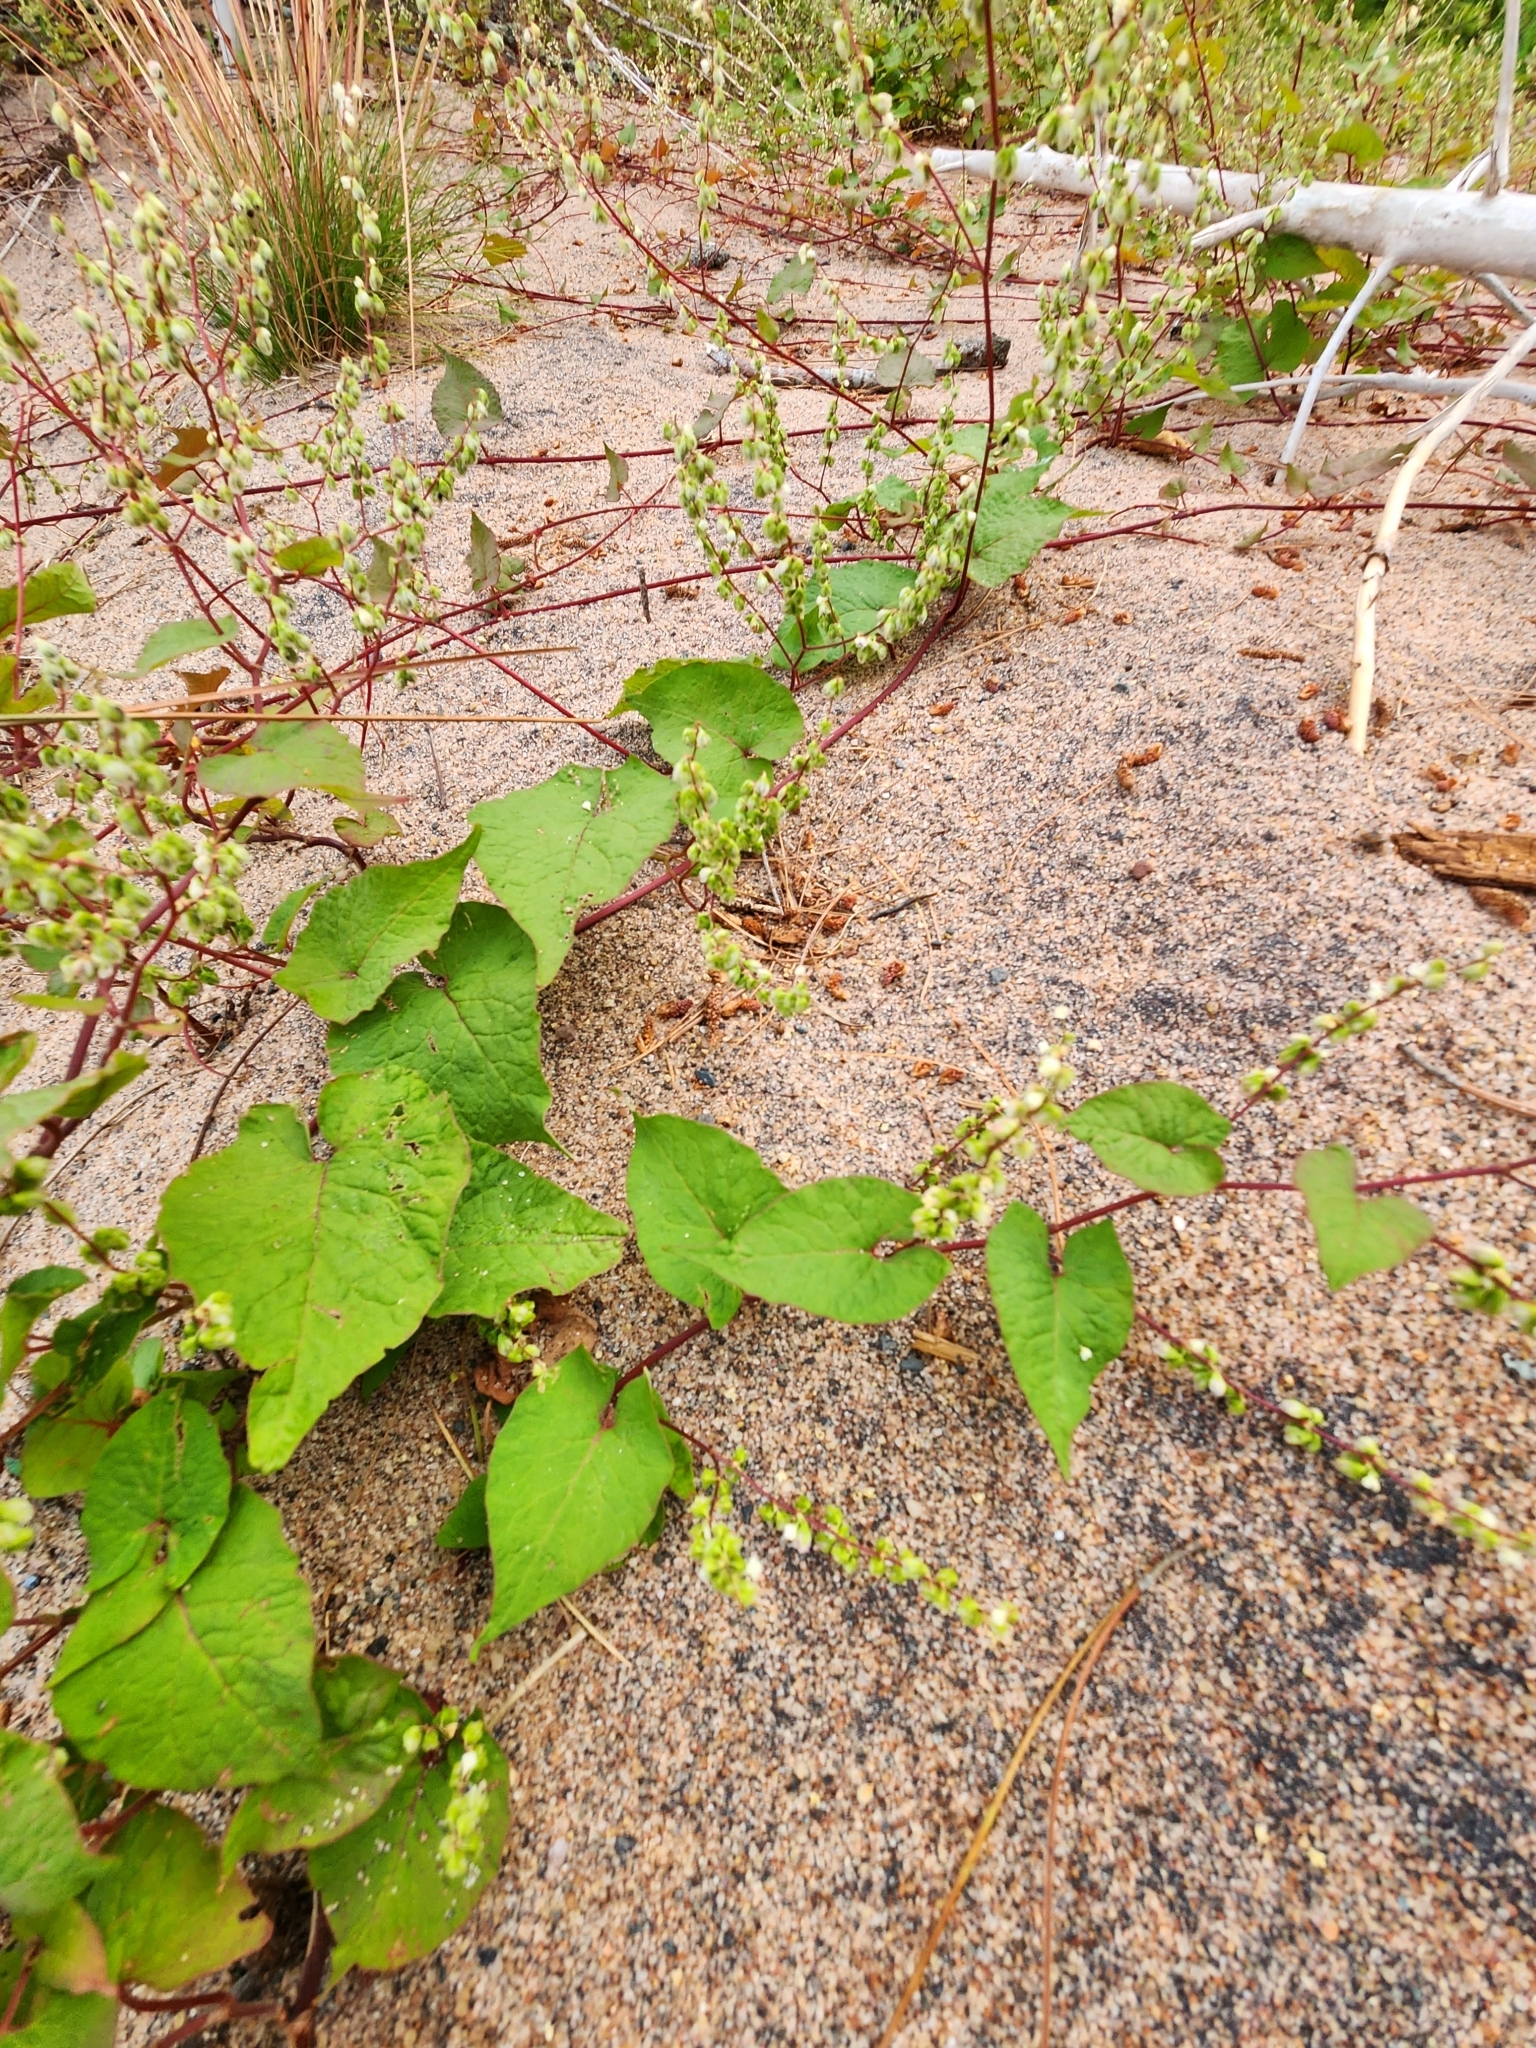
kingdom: Plantae
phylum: Tracheophyta
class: Magnoliopsida
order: Caryophyllales
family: Polygonaceae
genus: Parogonum
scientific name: Parogonum ciliinode
